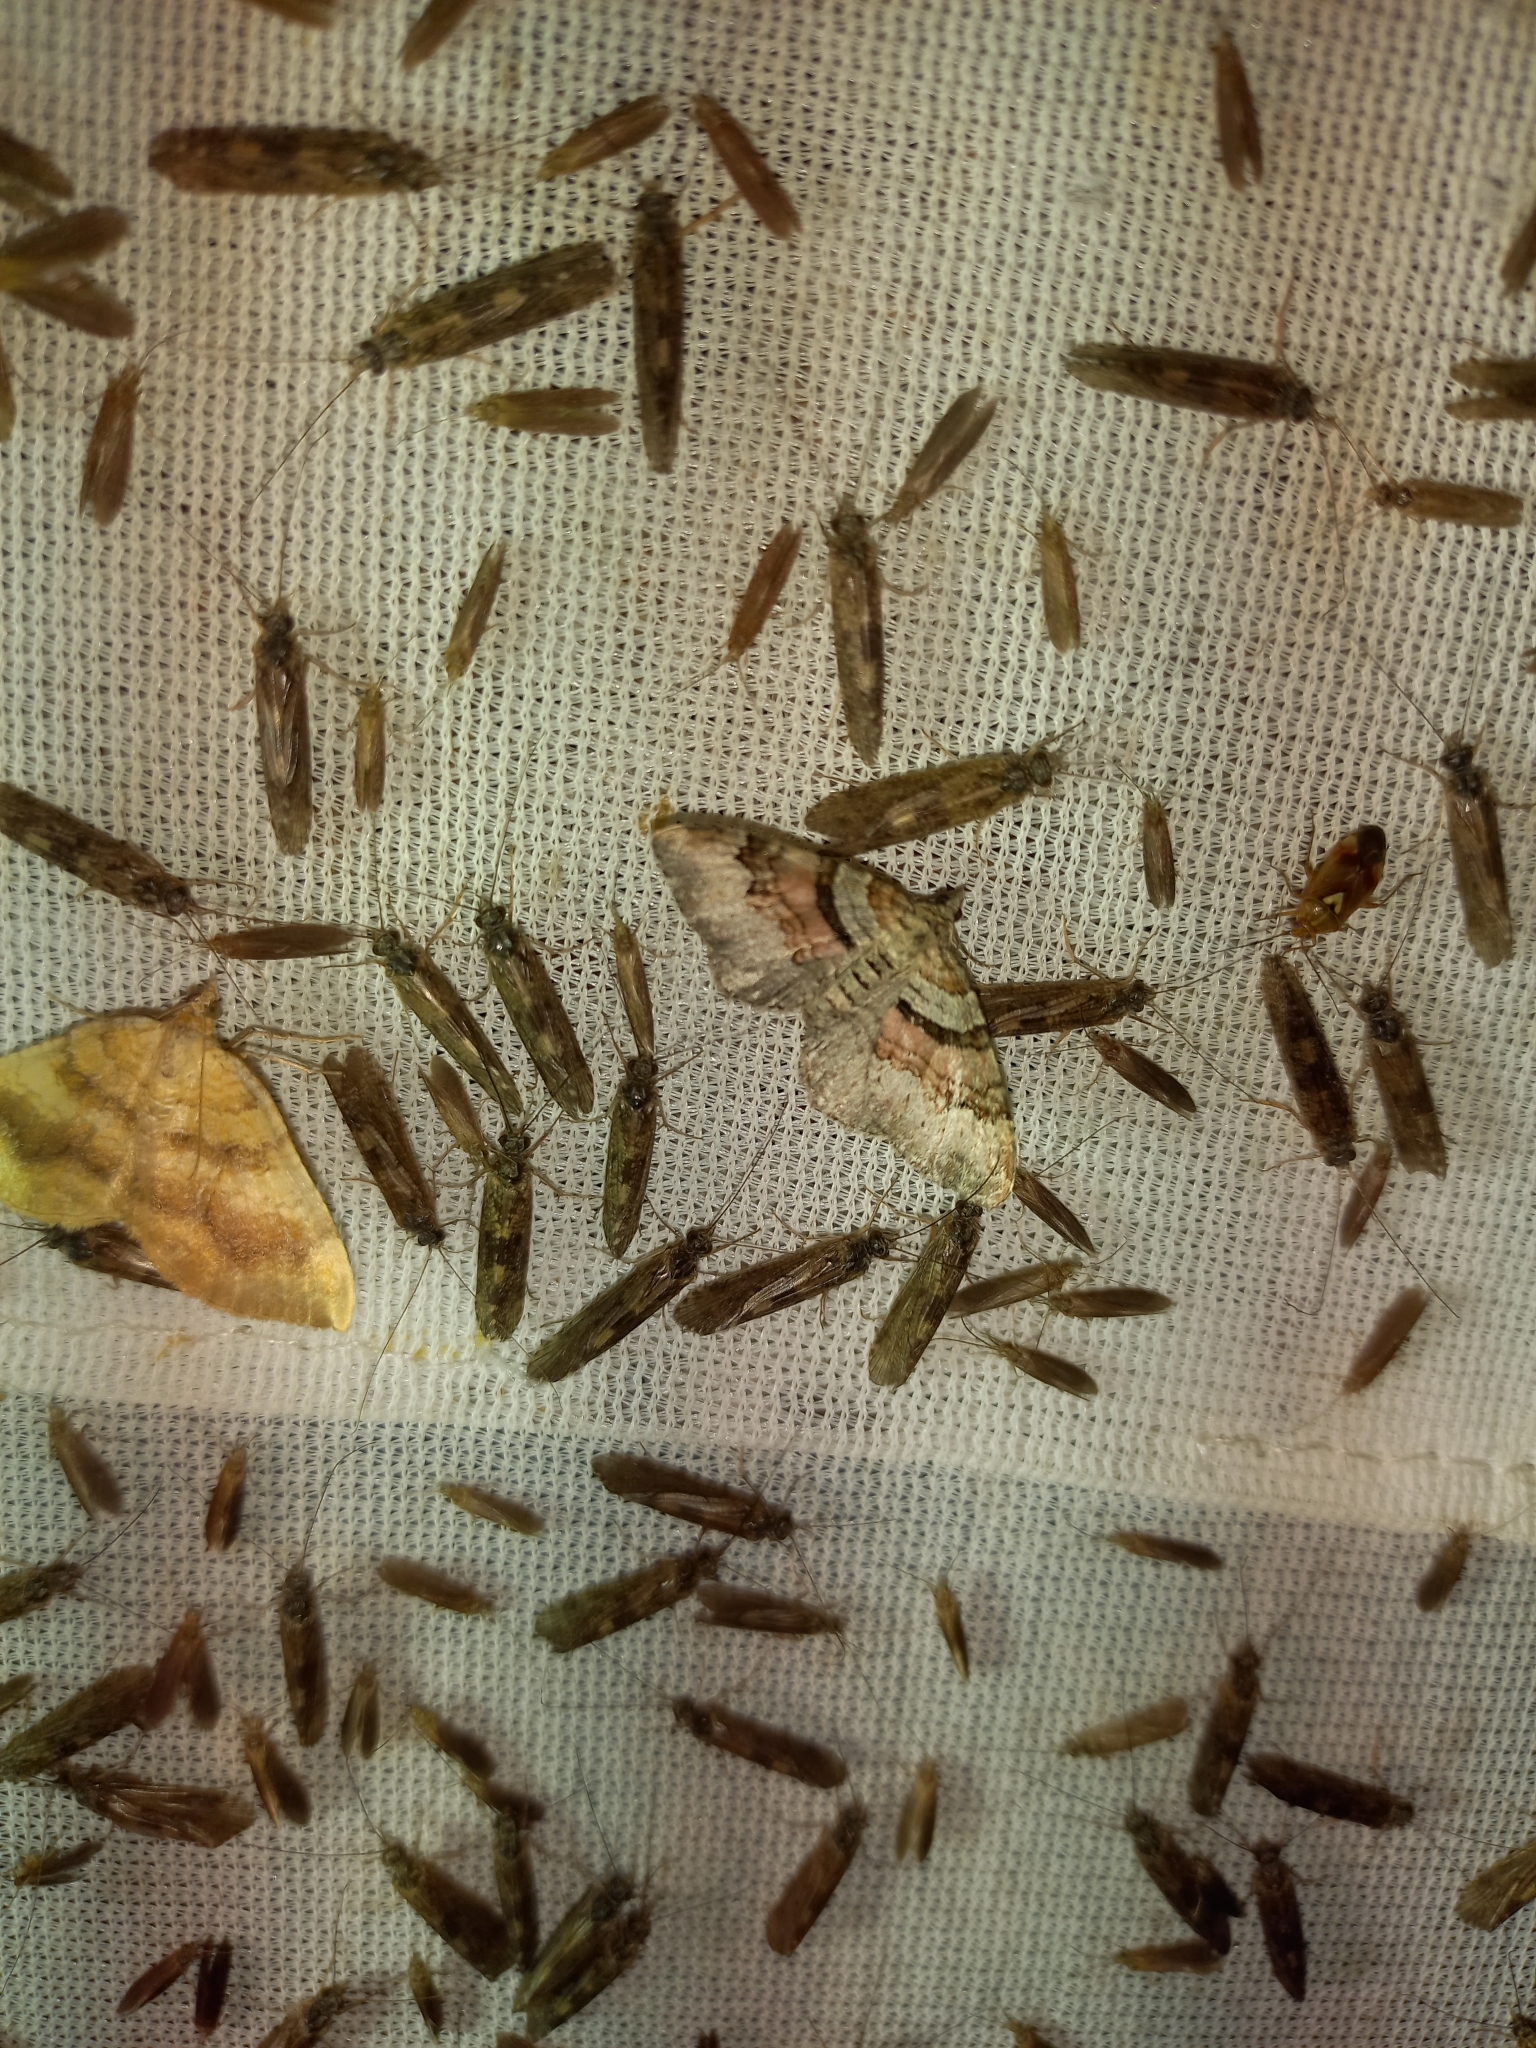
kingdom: Animalia
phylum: Arthropoda
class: Insecta
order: Lepidoptera
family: Geometridae
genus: Xanthorhoe
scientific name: Xanthorhoe designata
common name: Flame carpet
